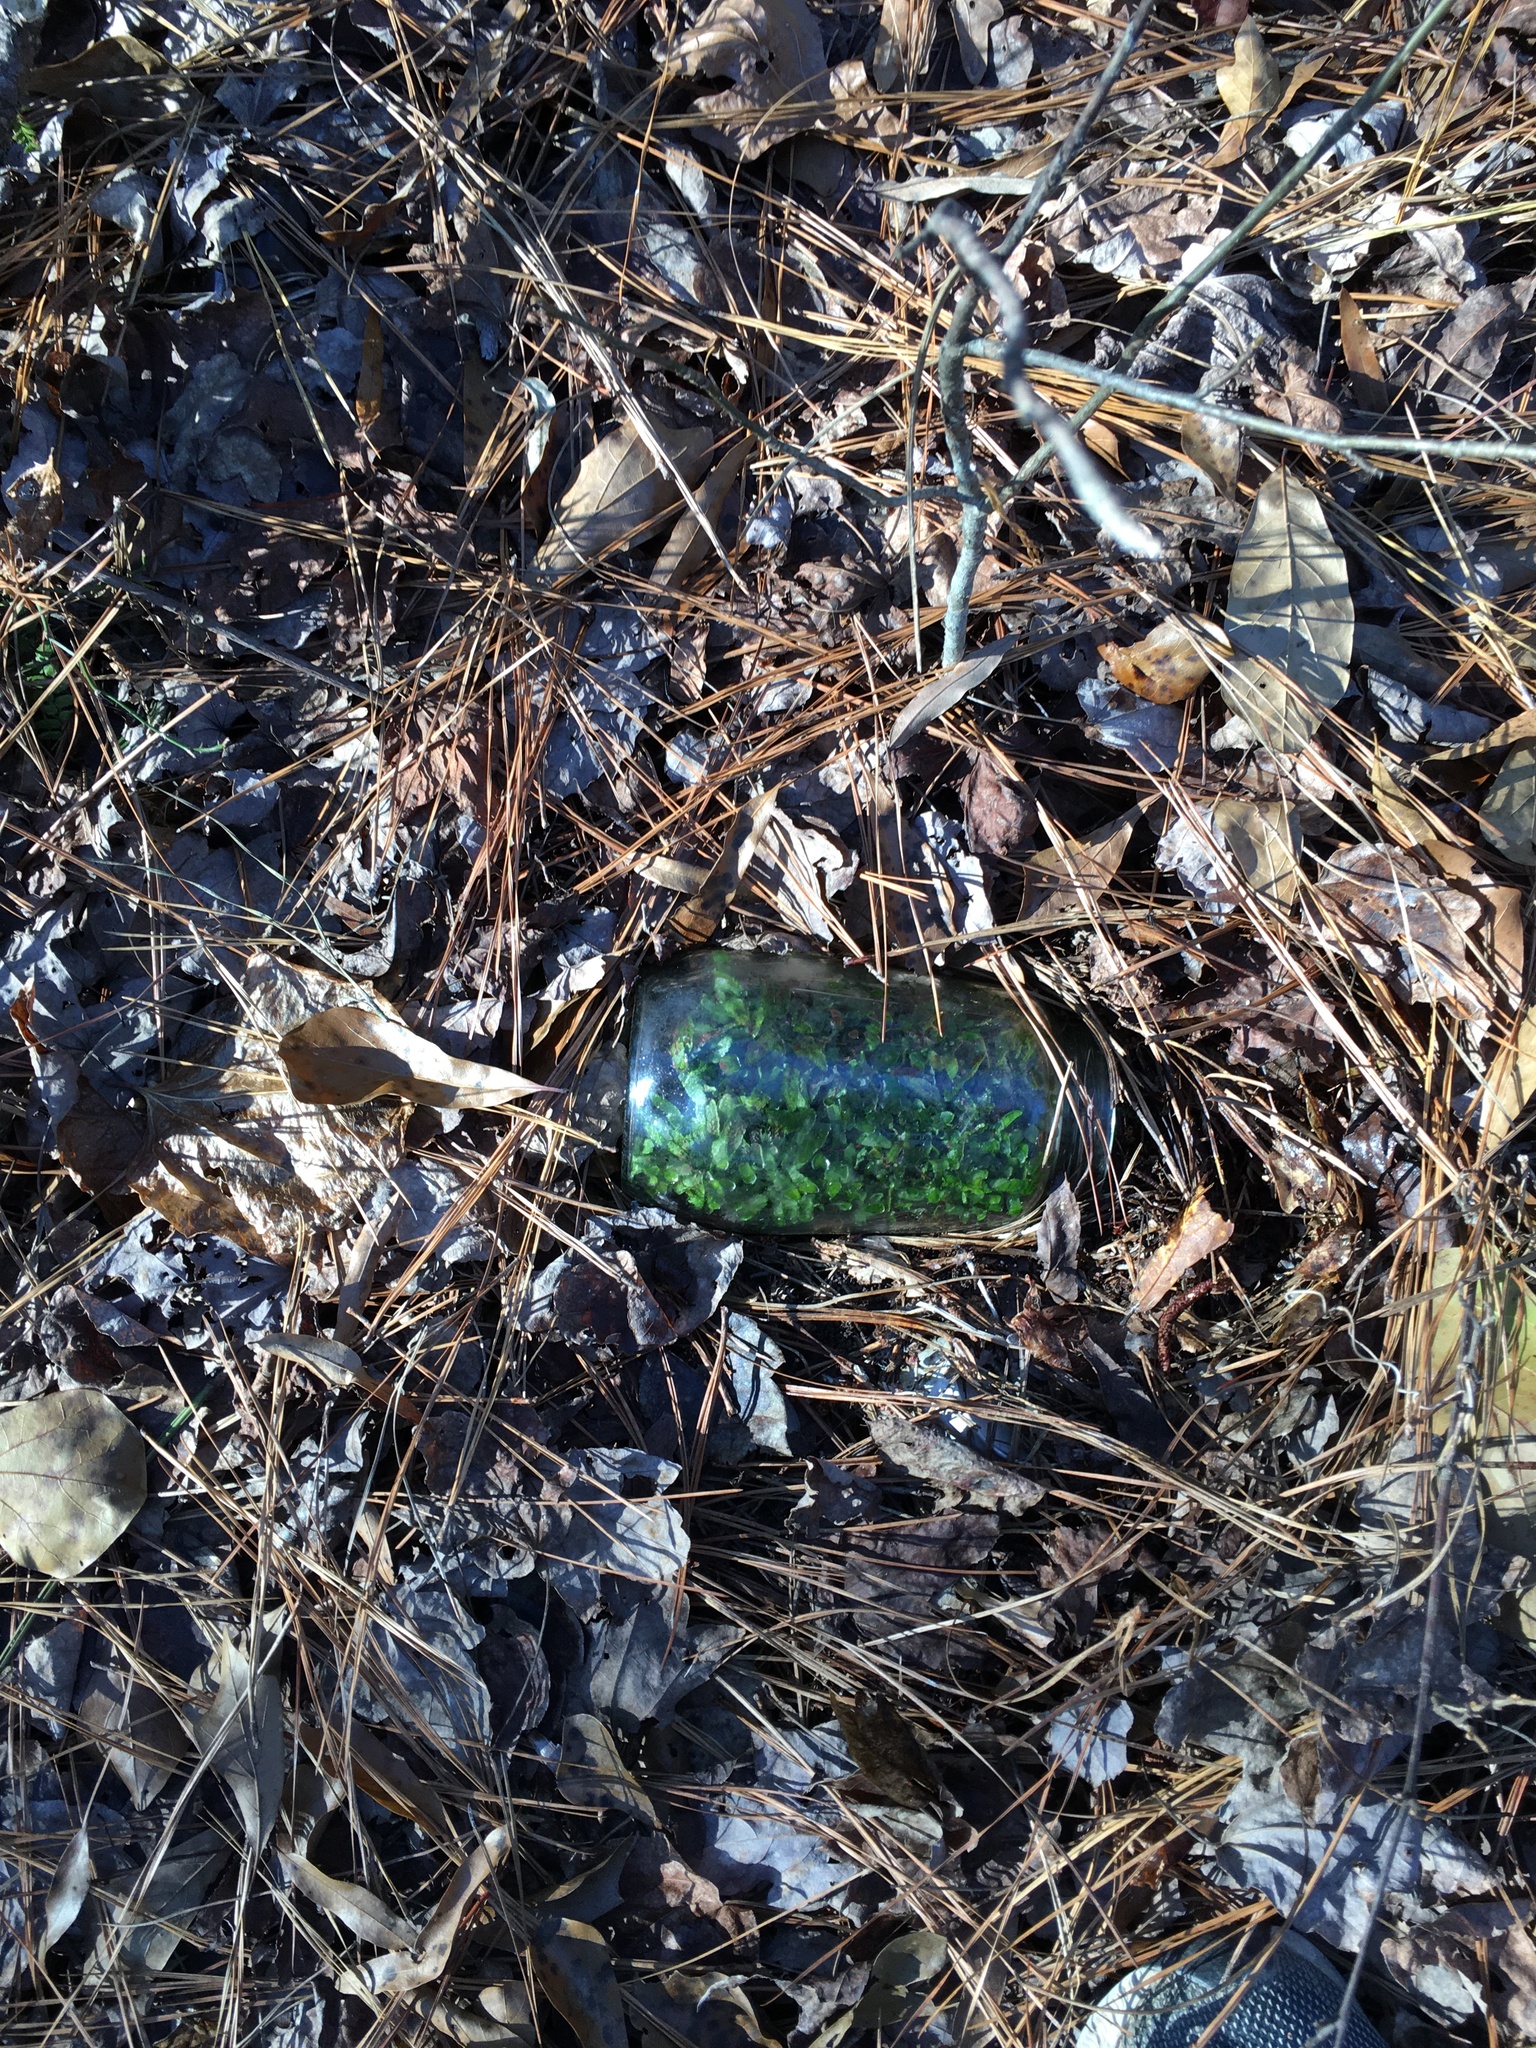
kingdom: Plantae
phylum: Tracheophyta
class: Polypodiopsida
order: Polypodiales
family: Aspleniaceae
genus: Asplenium
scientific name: Asplenium platyneuron
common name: Ebony spleenwort
